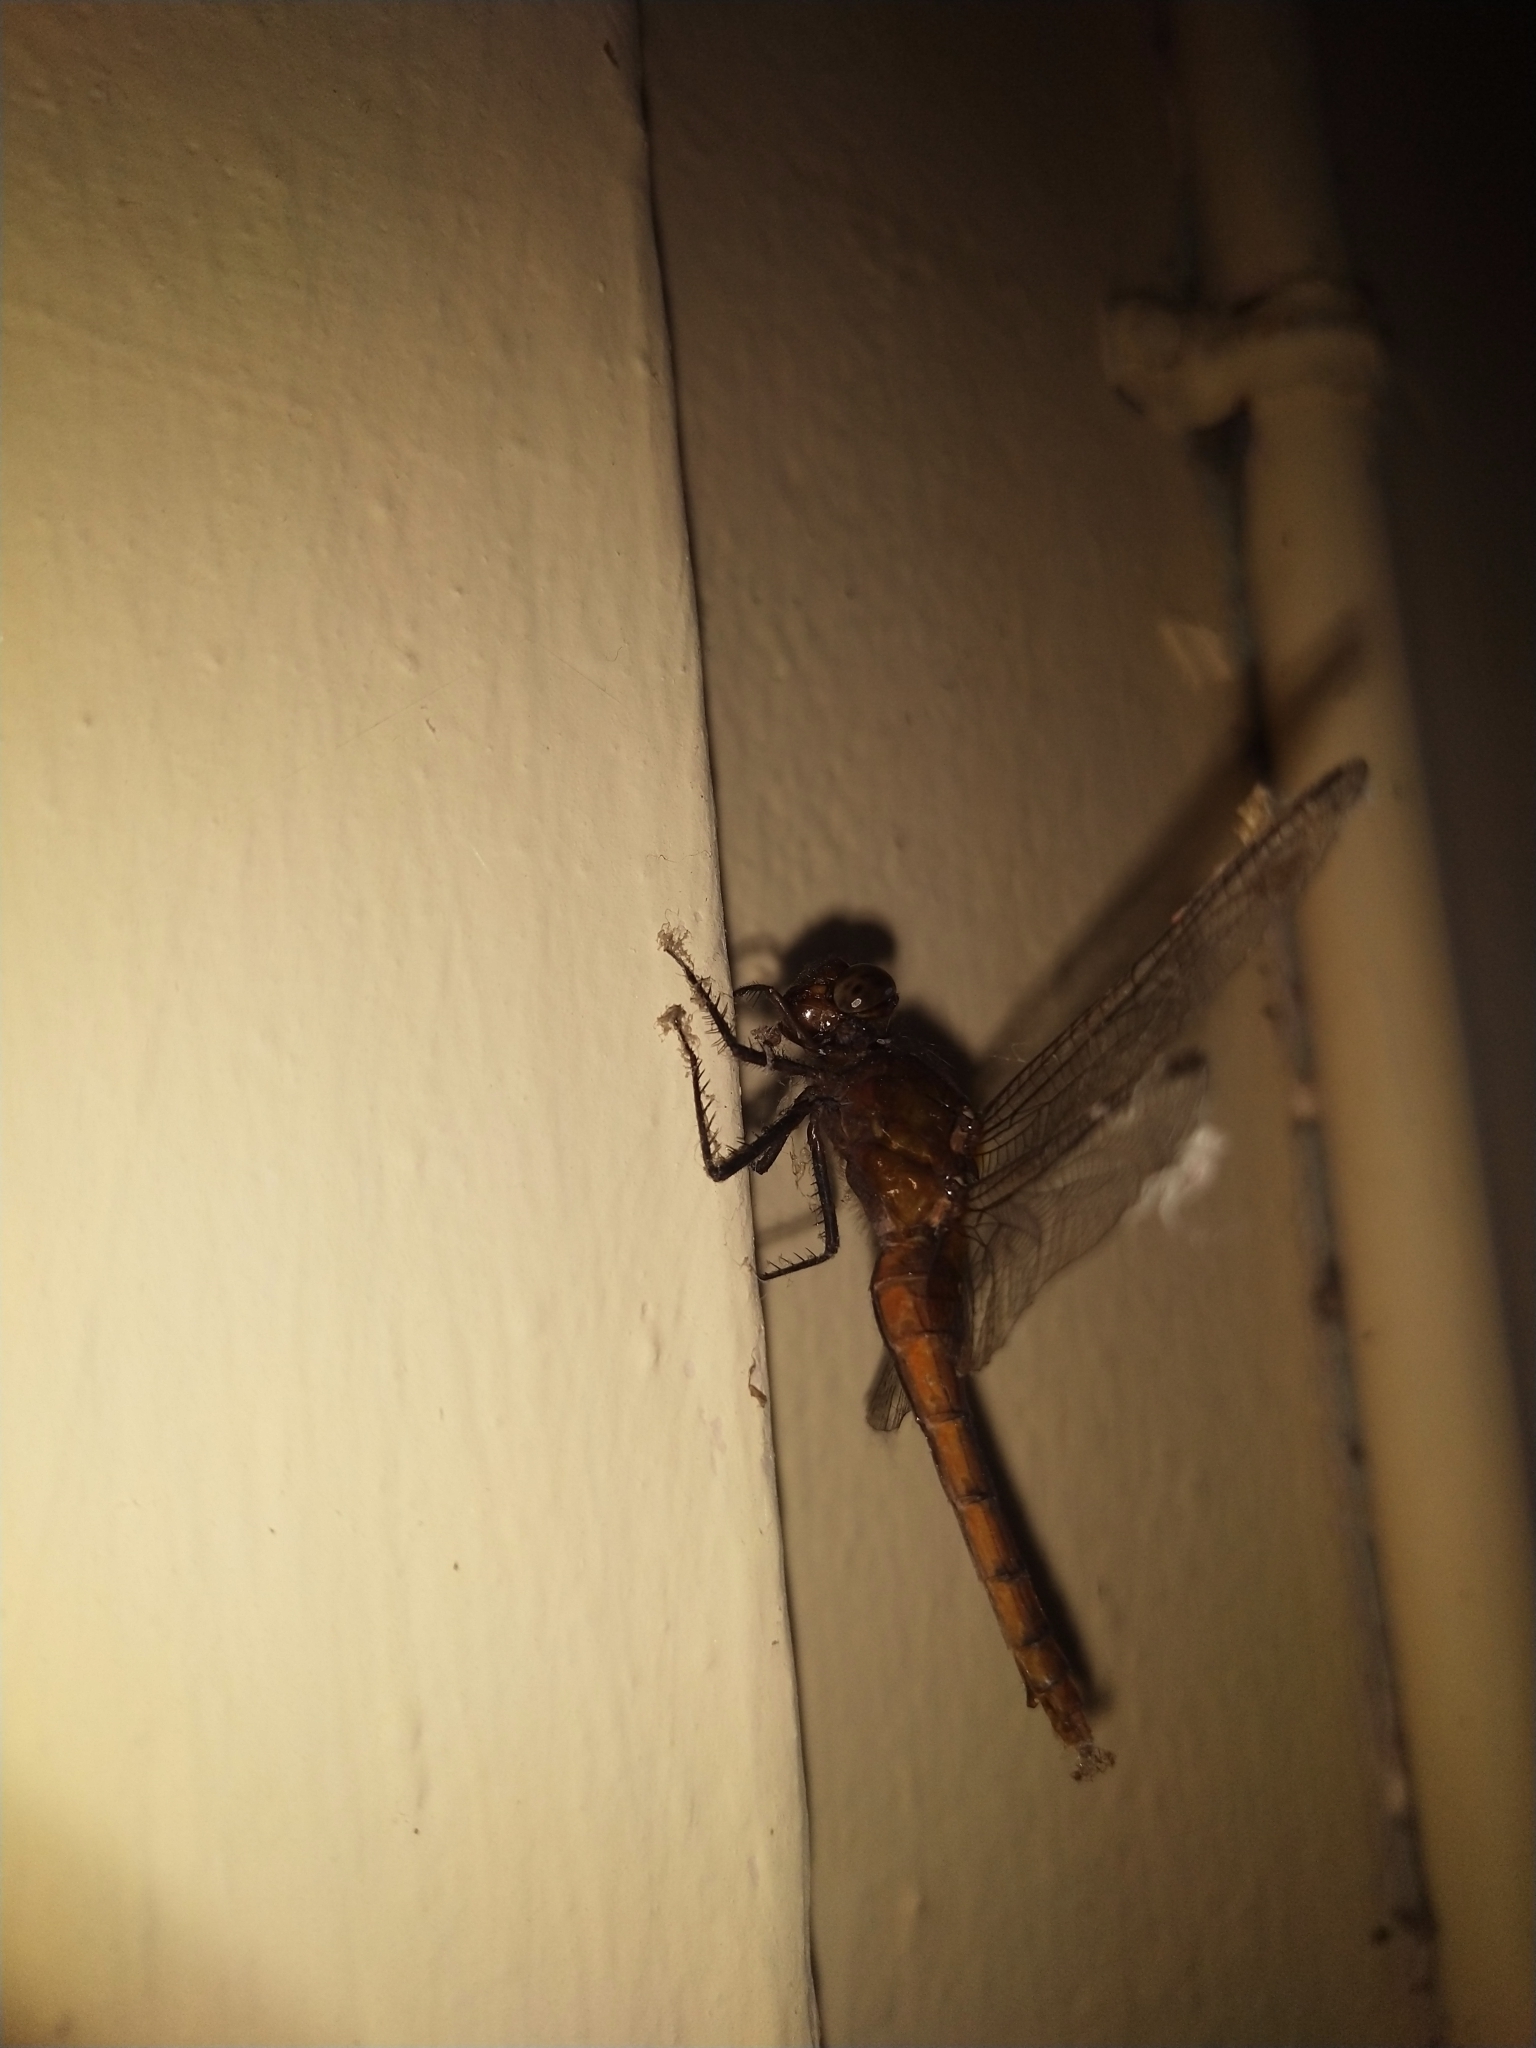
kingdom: Animalia
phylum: Arthropoda
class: Insecta
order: Odonata
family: Libellulidae
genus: Rhodothemis
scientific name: Rhodothemis rufa
